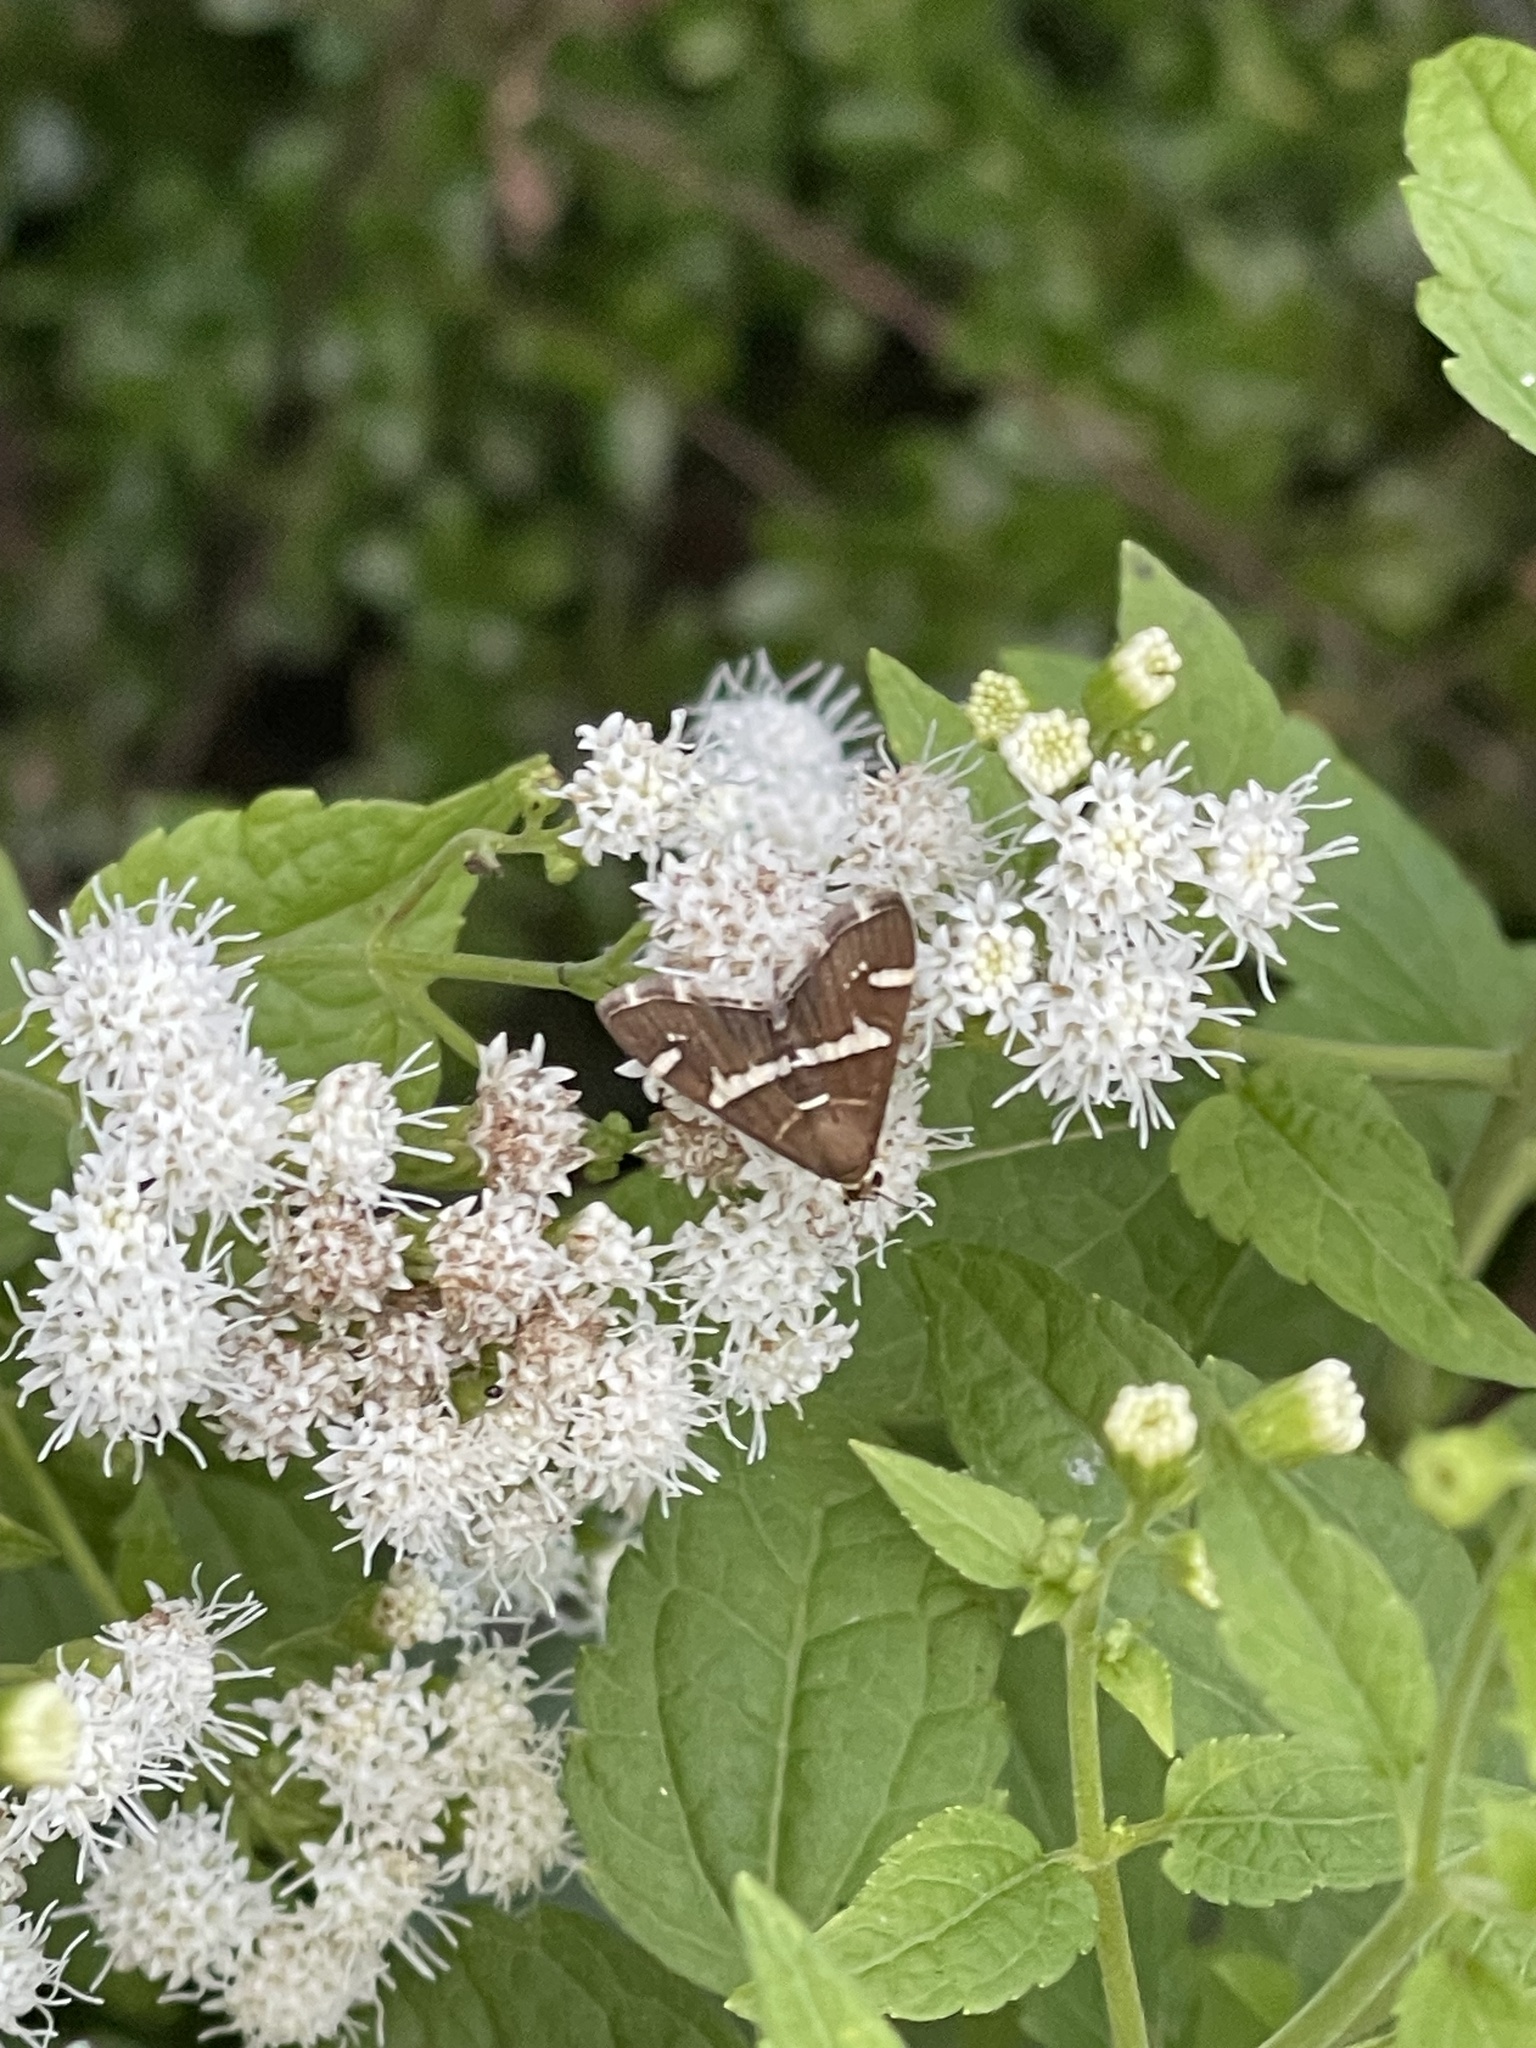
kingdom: Animalia
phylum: Arthropoda
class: Insecta
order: Lepidoptera
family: Crambidae
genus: Spoladea
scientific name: Spoladea recurvalis
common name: Beet webworm moth
